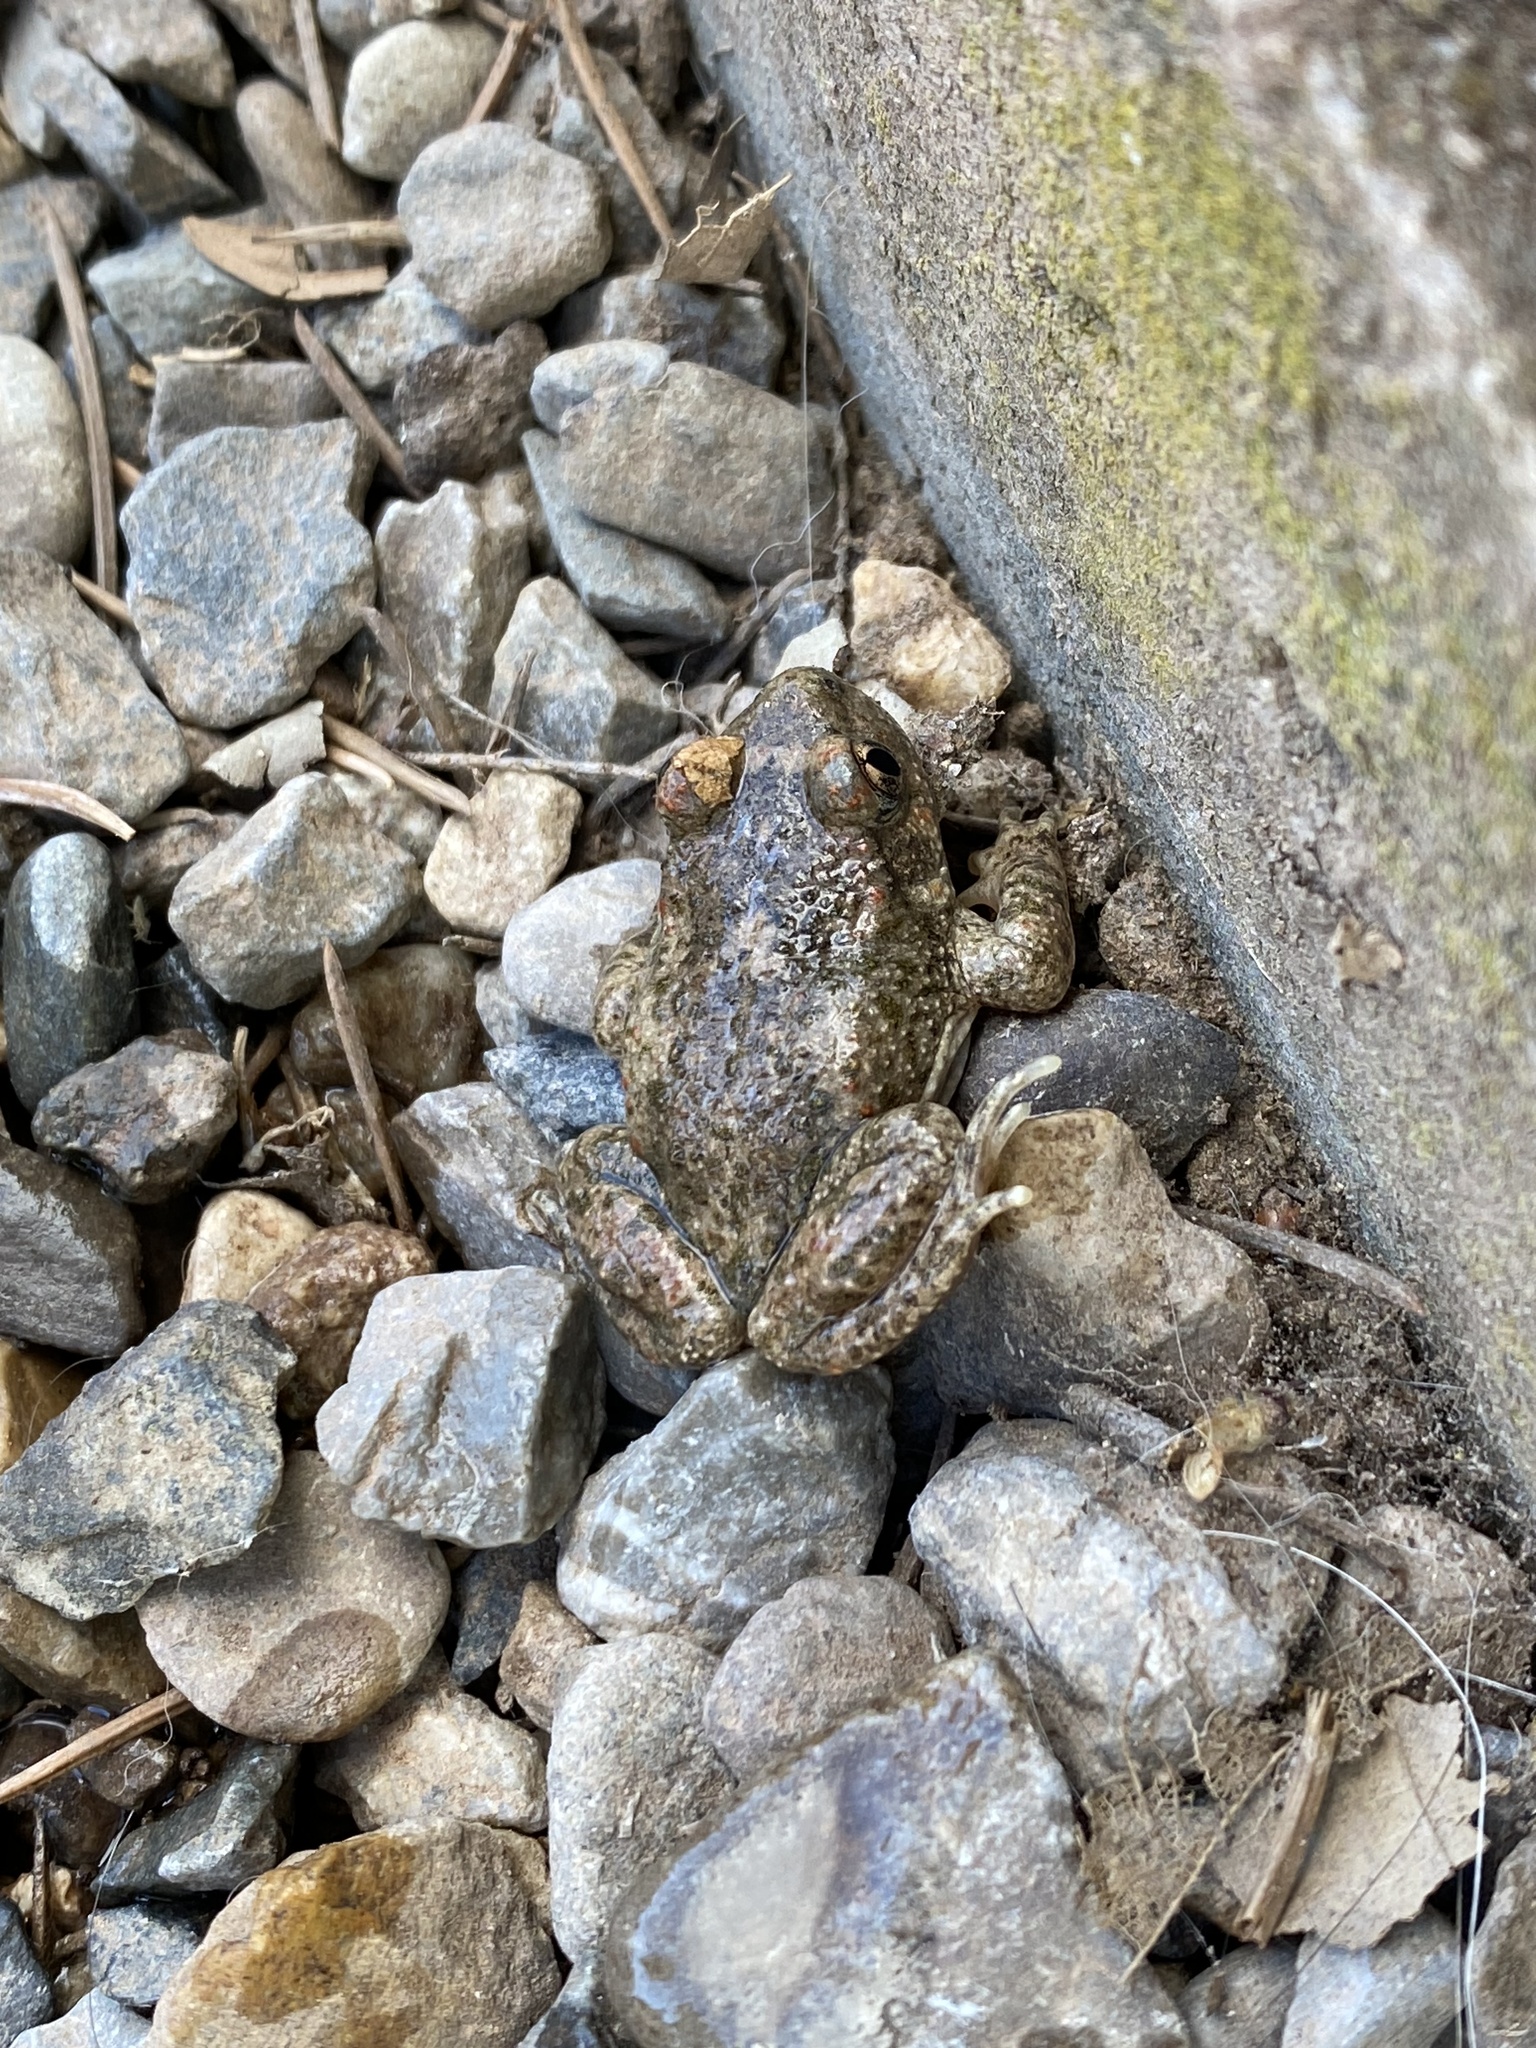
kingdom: Animalia
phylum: Chordata
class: Amphibia
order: Anura
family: Alytidae
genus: Alytes
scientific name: Alytes obstetricans
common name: Midwife toad
